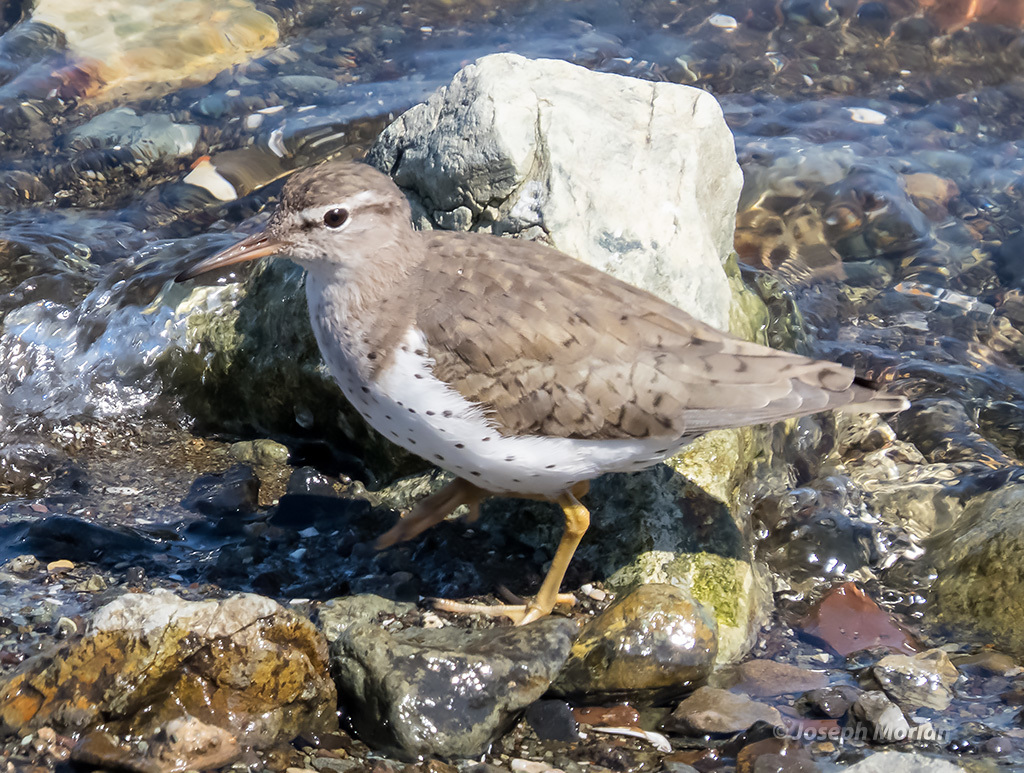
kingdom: Animalia
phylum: Chordata
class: Aves
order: Charadriiformes
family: Scolopacidae
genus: Actitis
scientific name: Actitis macularius
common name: Spotted sandpiper
